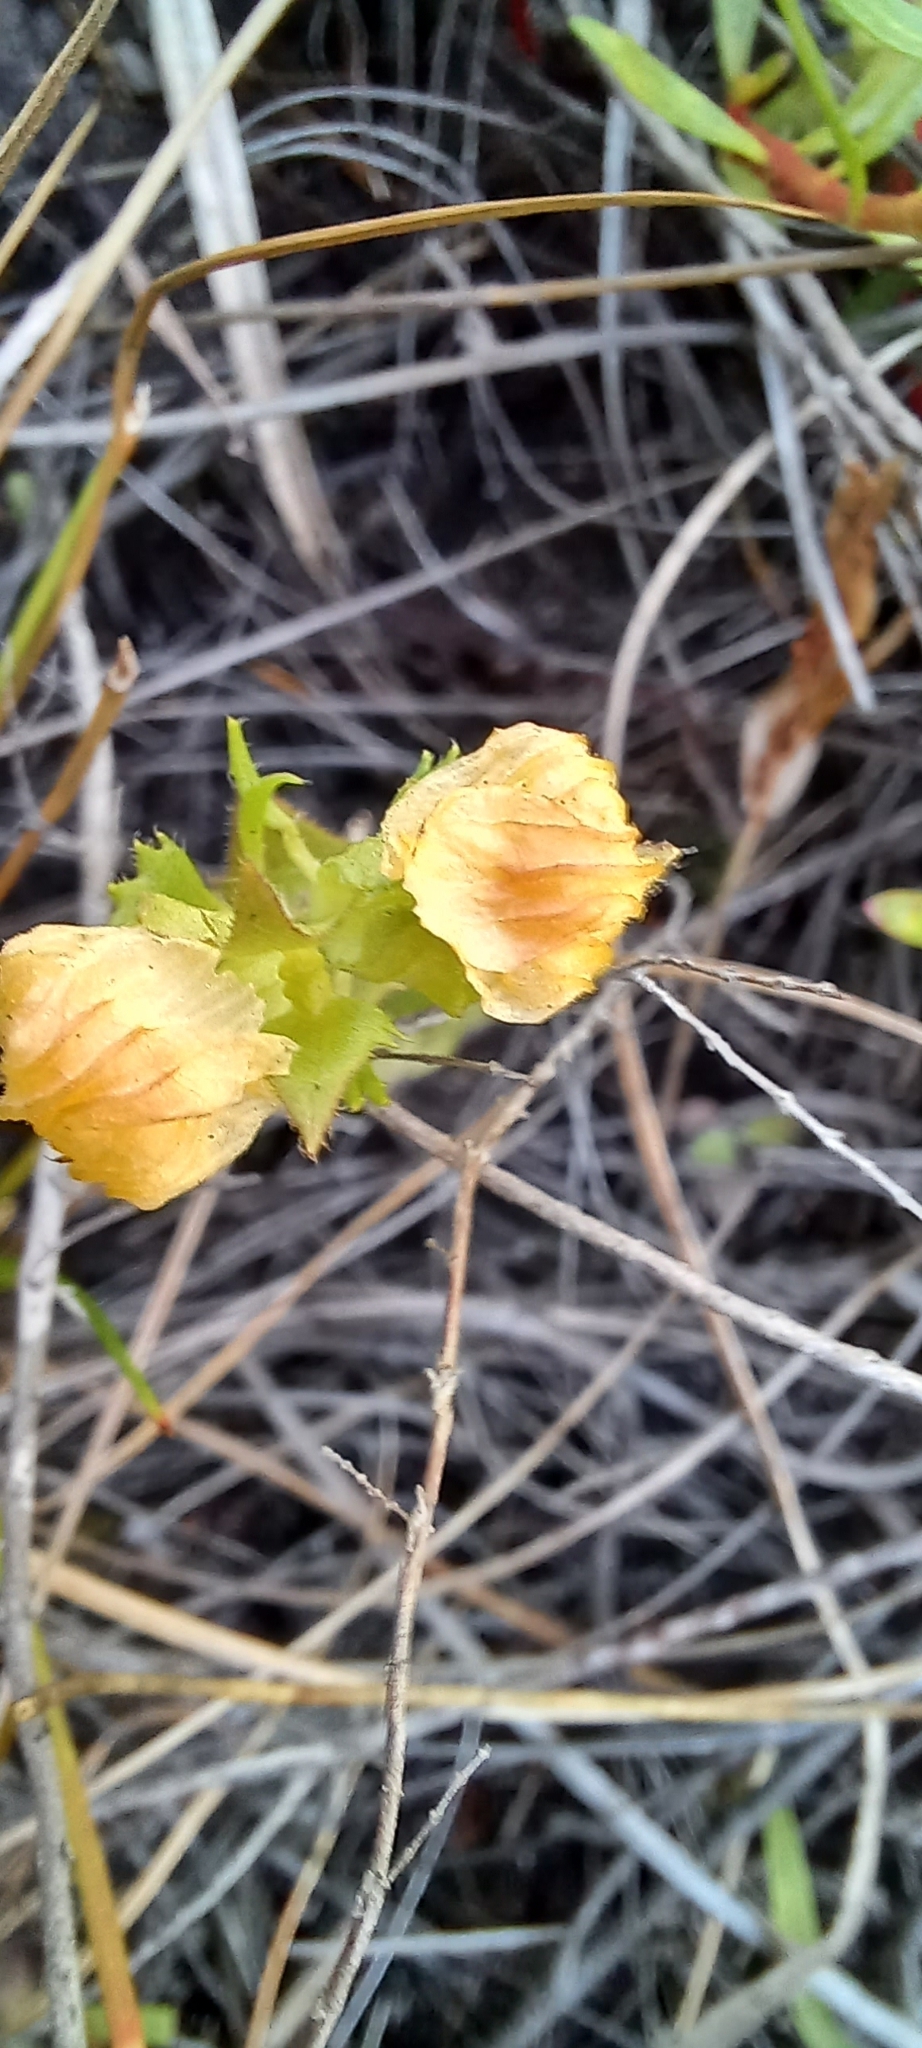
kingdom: Plantae
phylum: Tracheophyta
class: Magnoliopsida
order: Lamiales
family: Orobanchaceae
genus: Alectra
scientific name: Alectra sessiliflora
